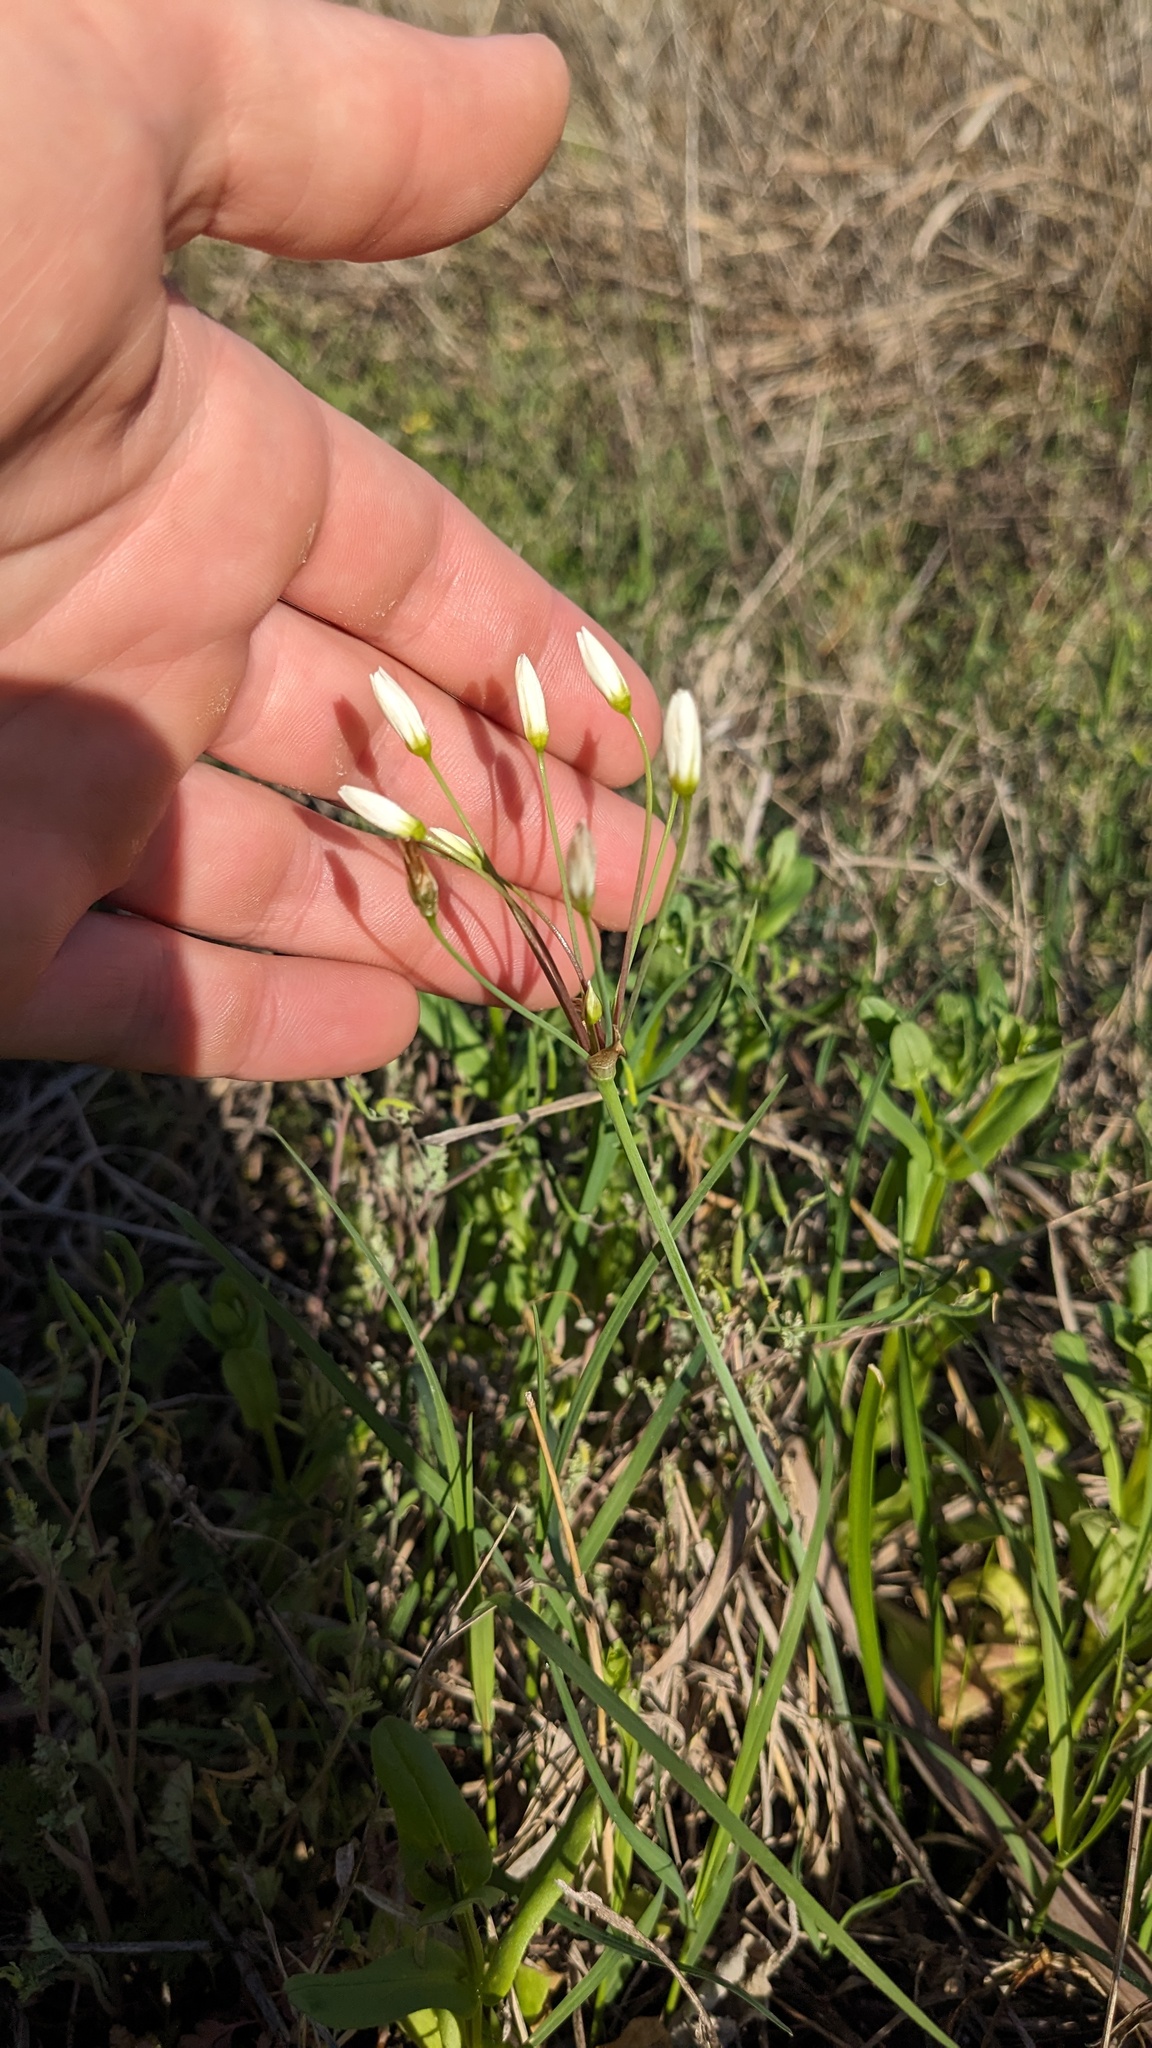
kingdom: Plantae
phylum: Tracheophyta
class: Liliopsida
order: Asparagales
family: Amaryllidaceae
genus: Nothoscordum
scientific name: Nothoscordum bivalve
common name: Crow-poison
